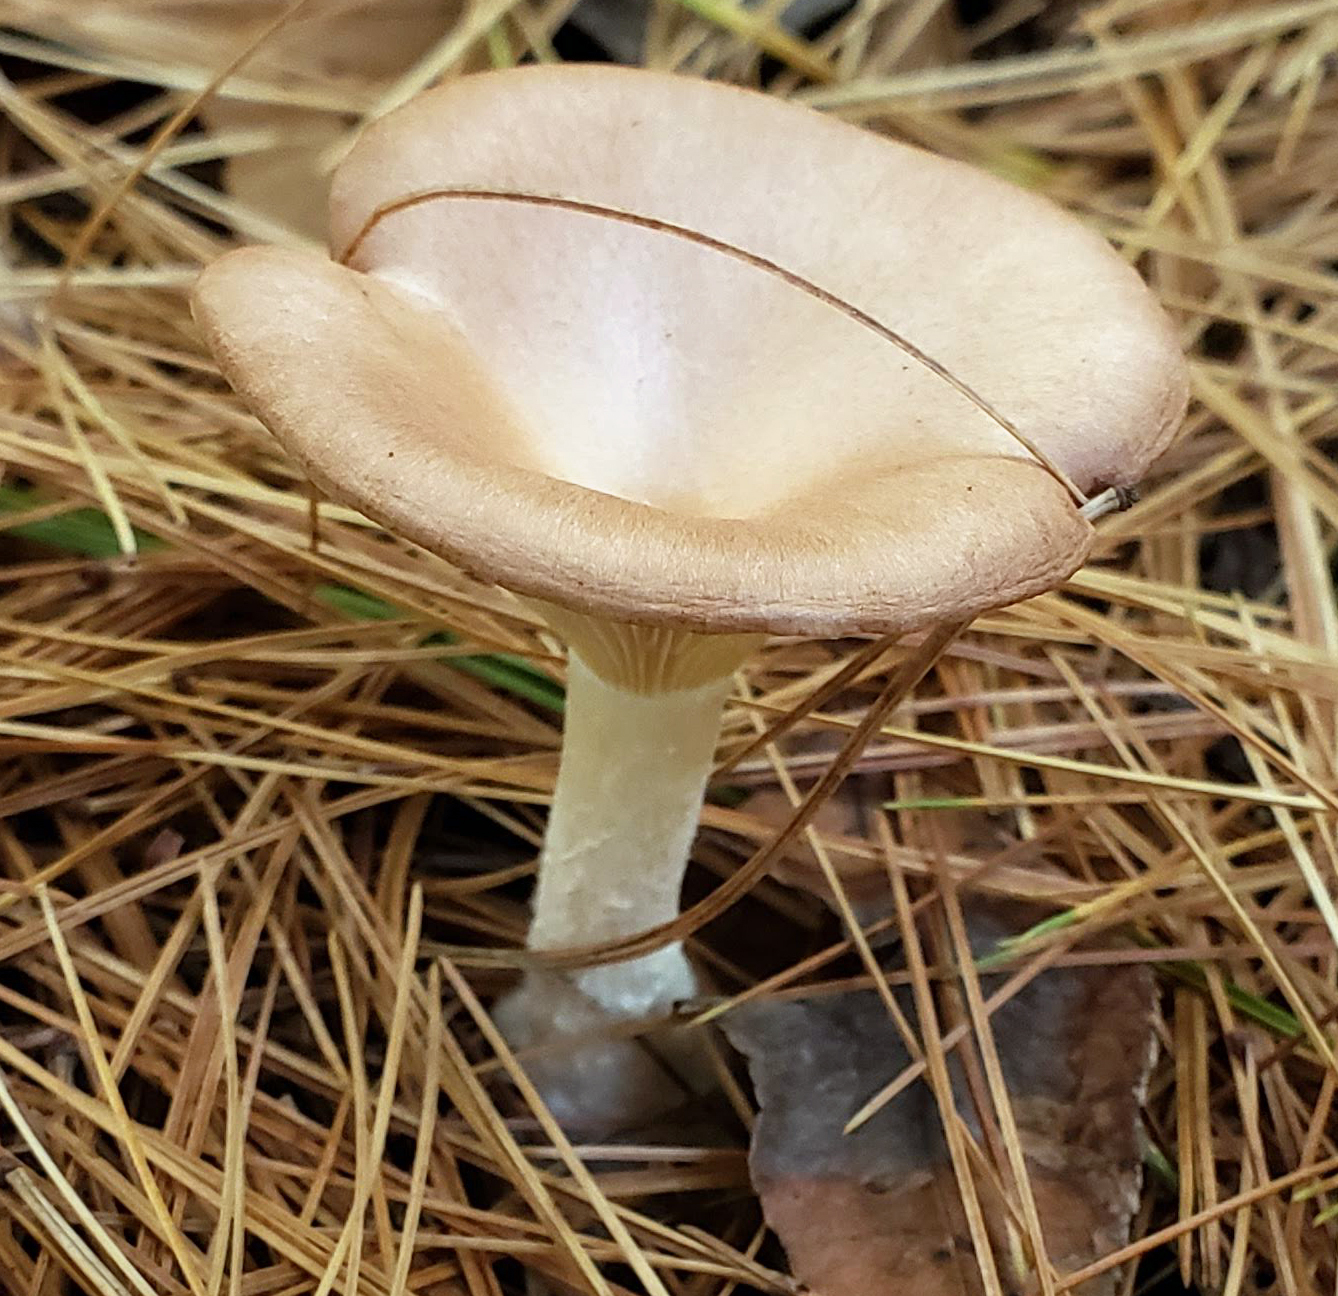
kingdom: Fungi
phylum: Basidiomycota
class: Agaricomycetes
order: Agaricales
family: Hygrophoraceae
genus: Ampulloclitocybe
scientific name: Ampulloclitocybe clavipes
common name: Club foot
